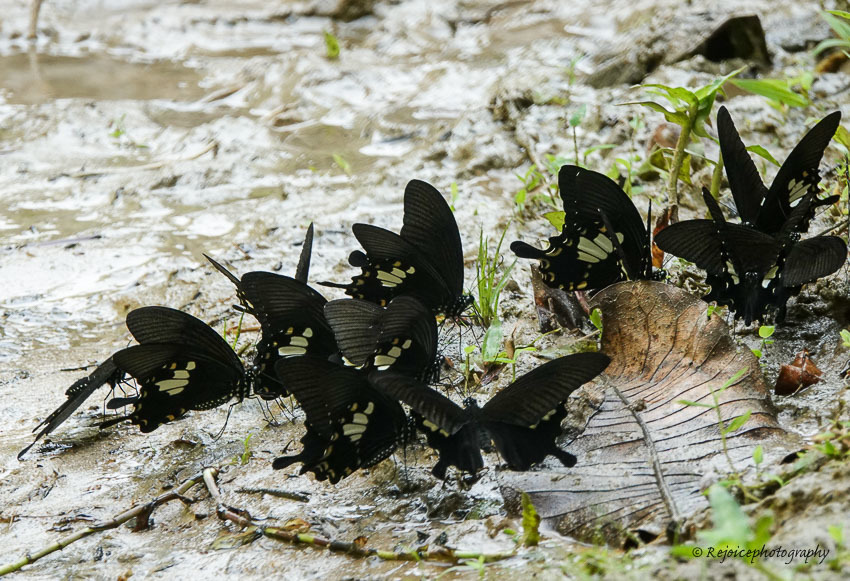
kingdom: Animalia
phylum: Arthropoda
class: Insecta
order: Lepidoptera
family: Papilionidae
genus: Papilio
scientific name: Papilio nephelus
